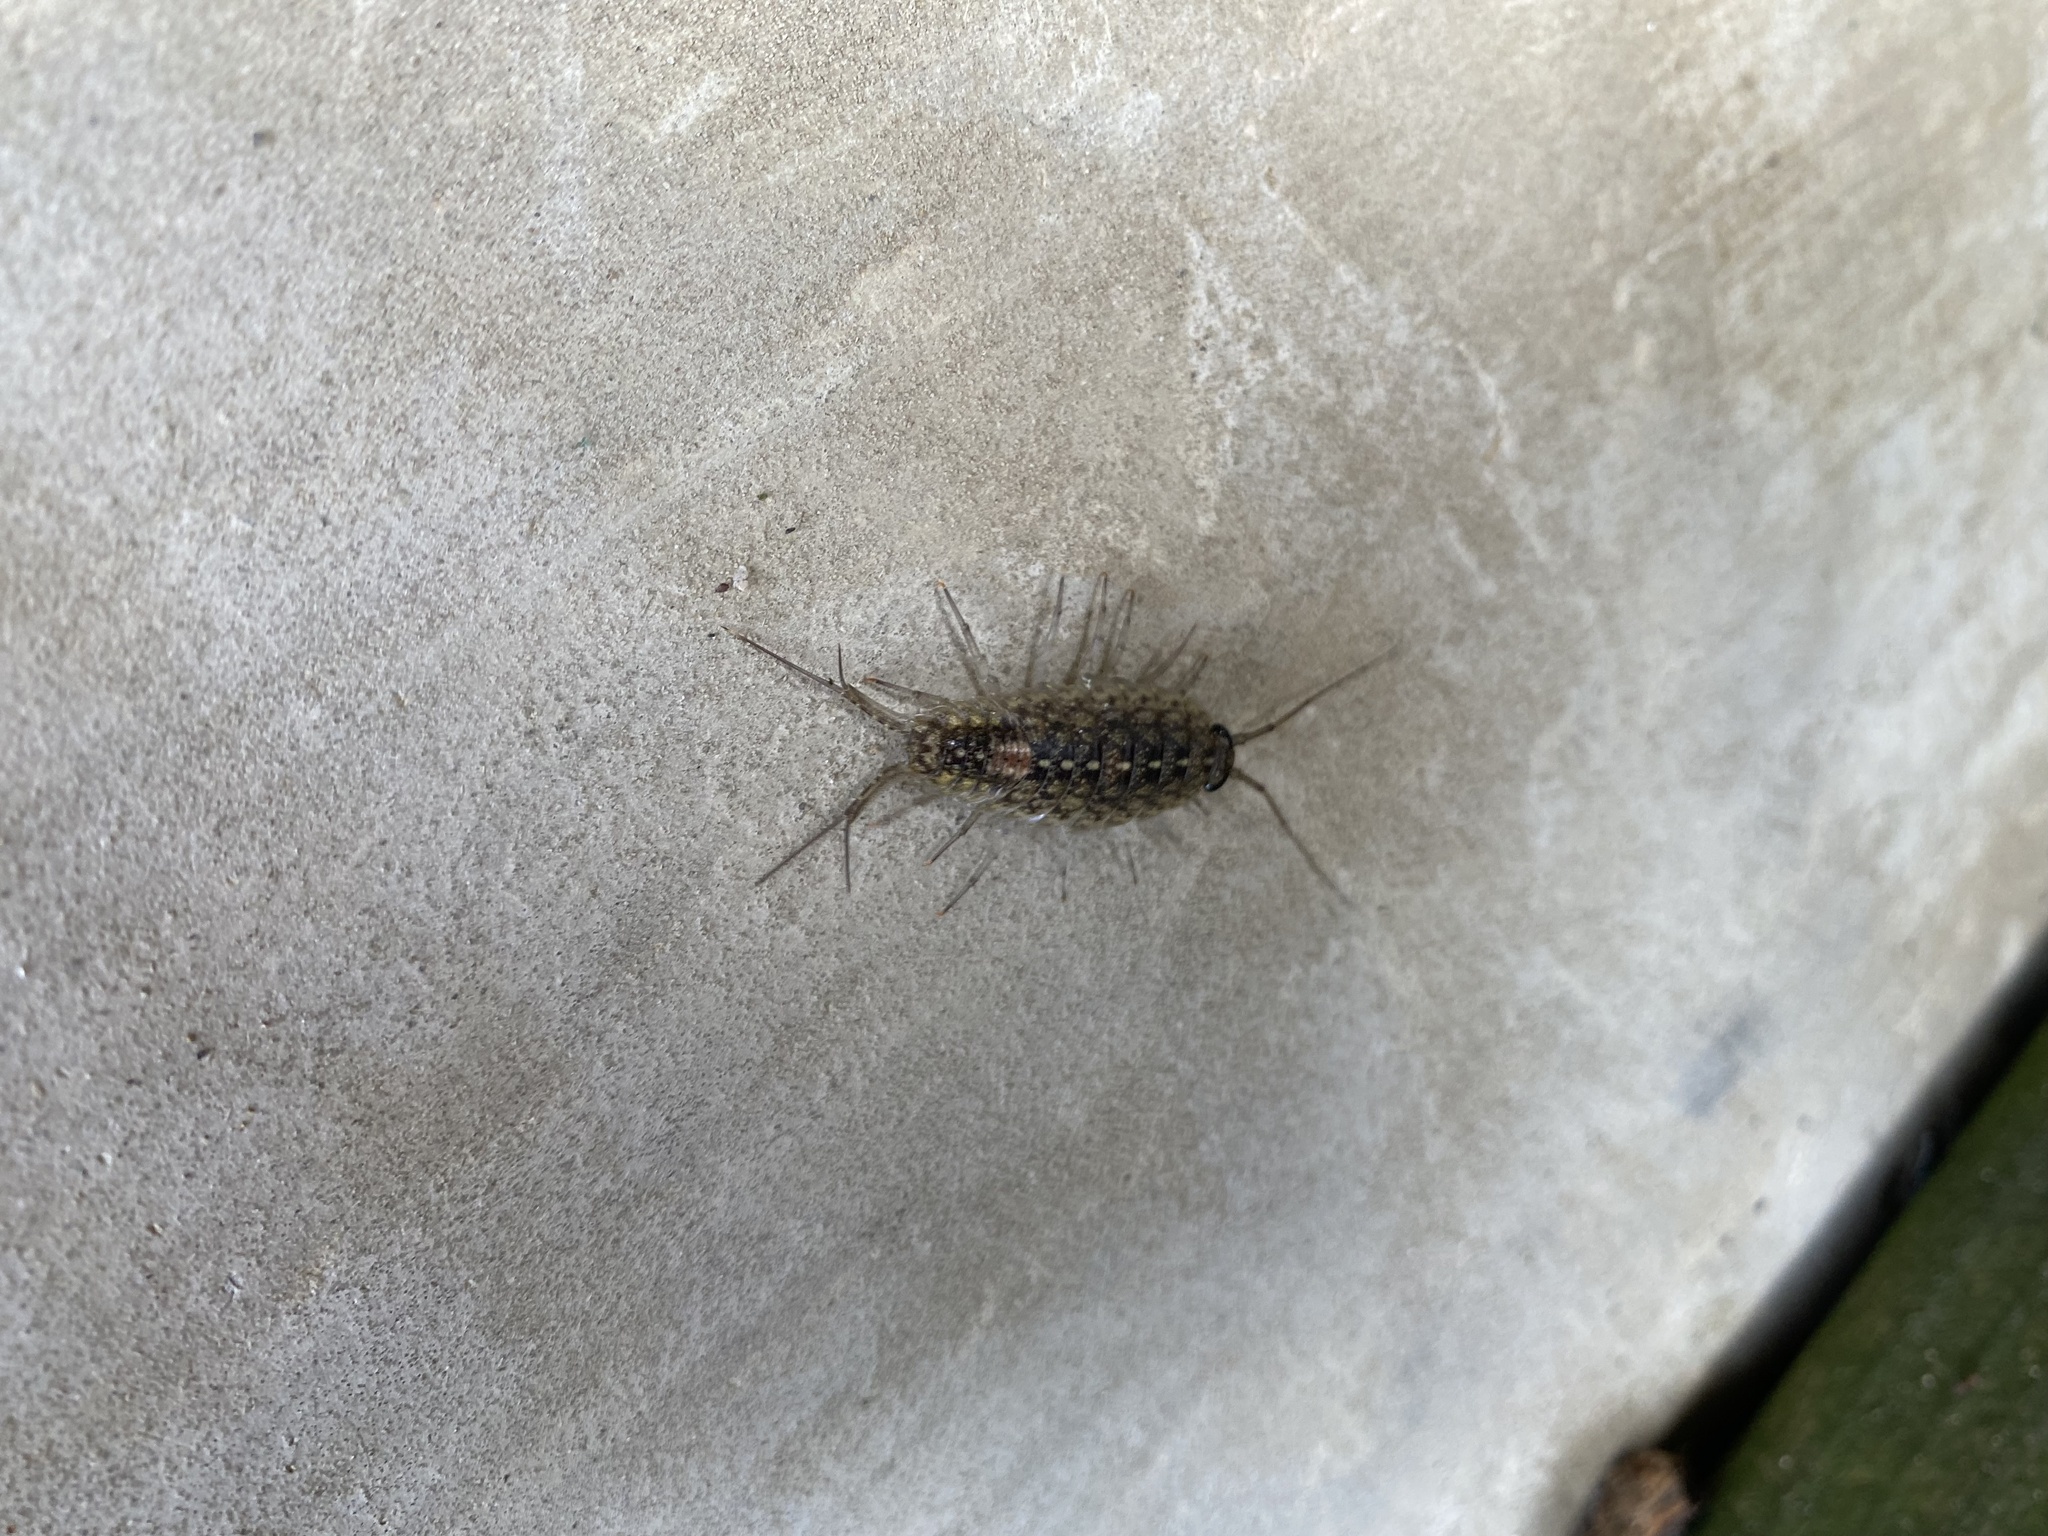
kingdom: Animalia
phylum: Arthropoda
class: Malacostraca
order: Isopoda
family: Ligiidae
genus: Ligia
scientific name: Ligia exotica
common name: Wharf roach
